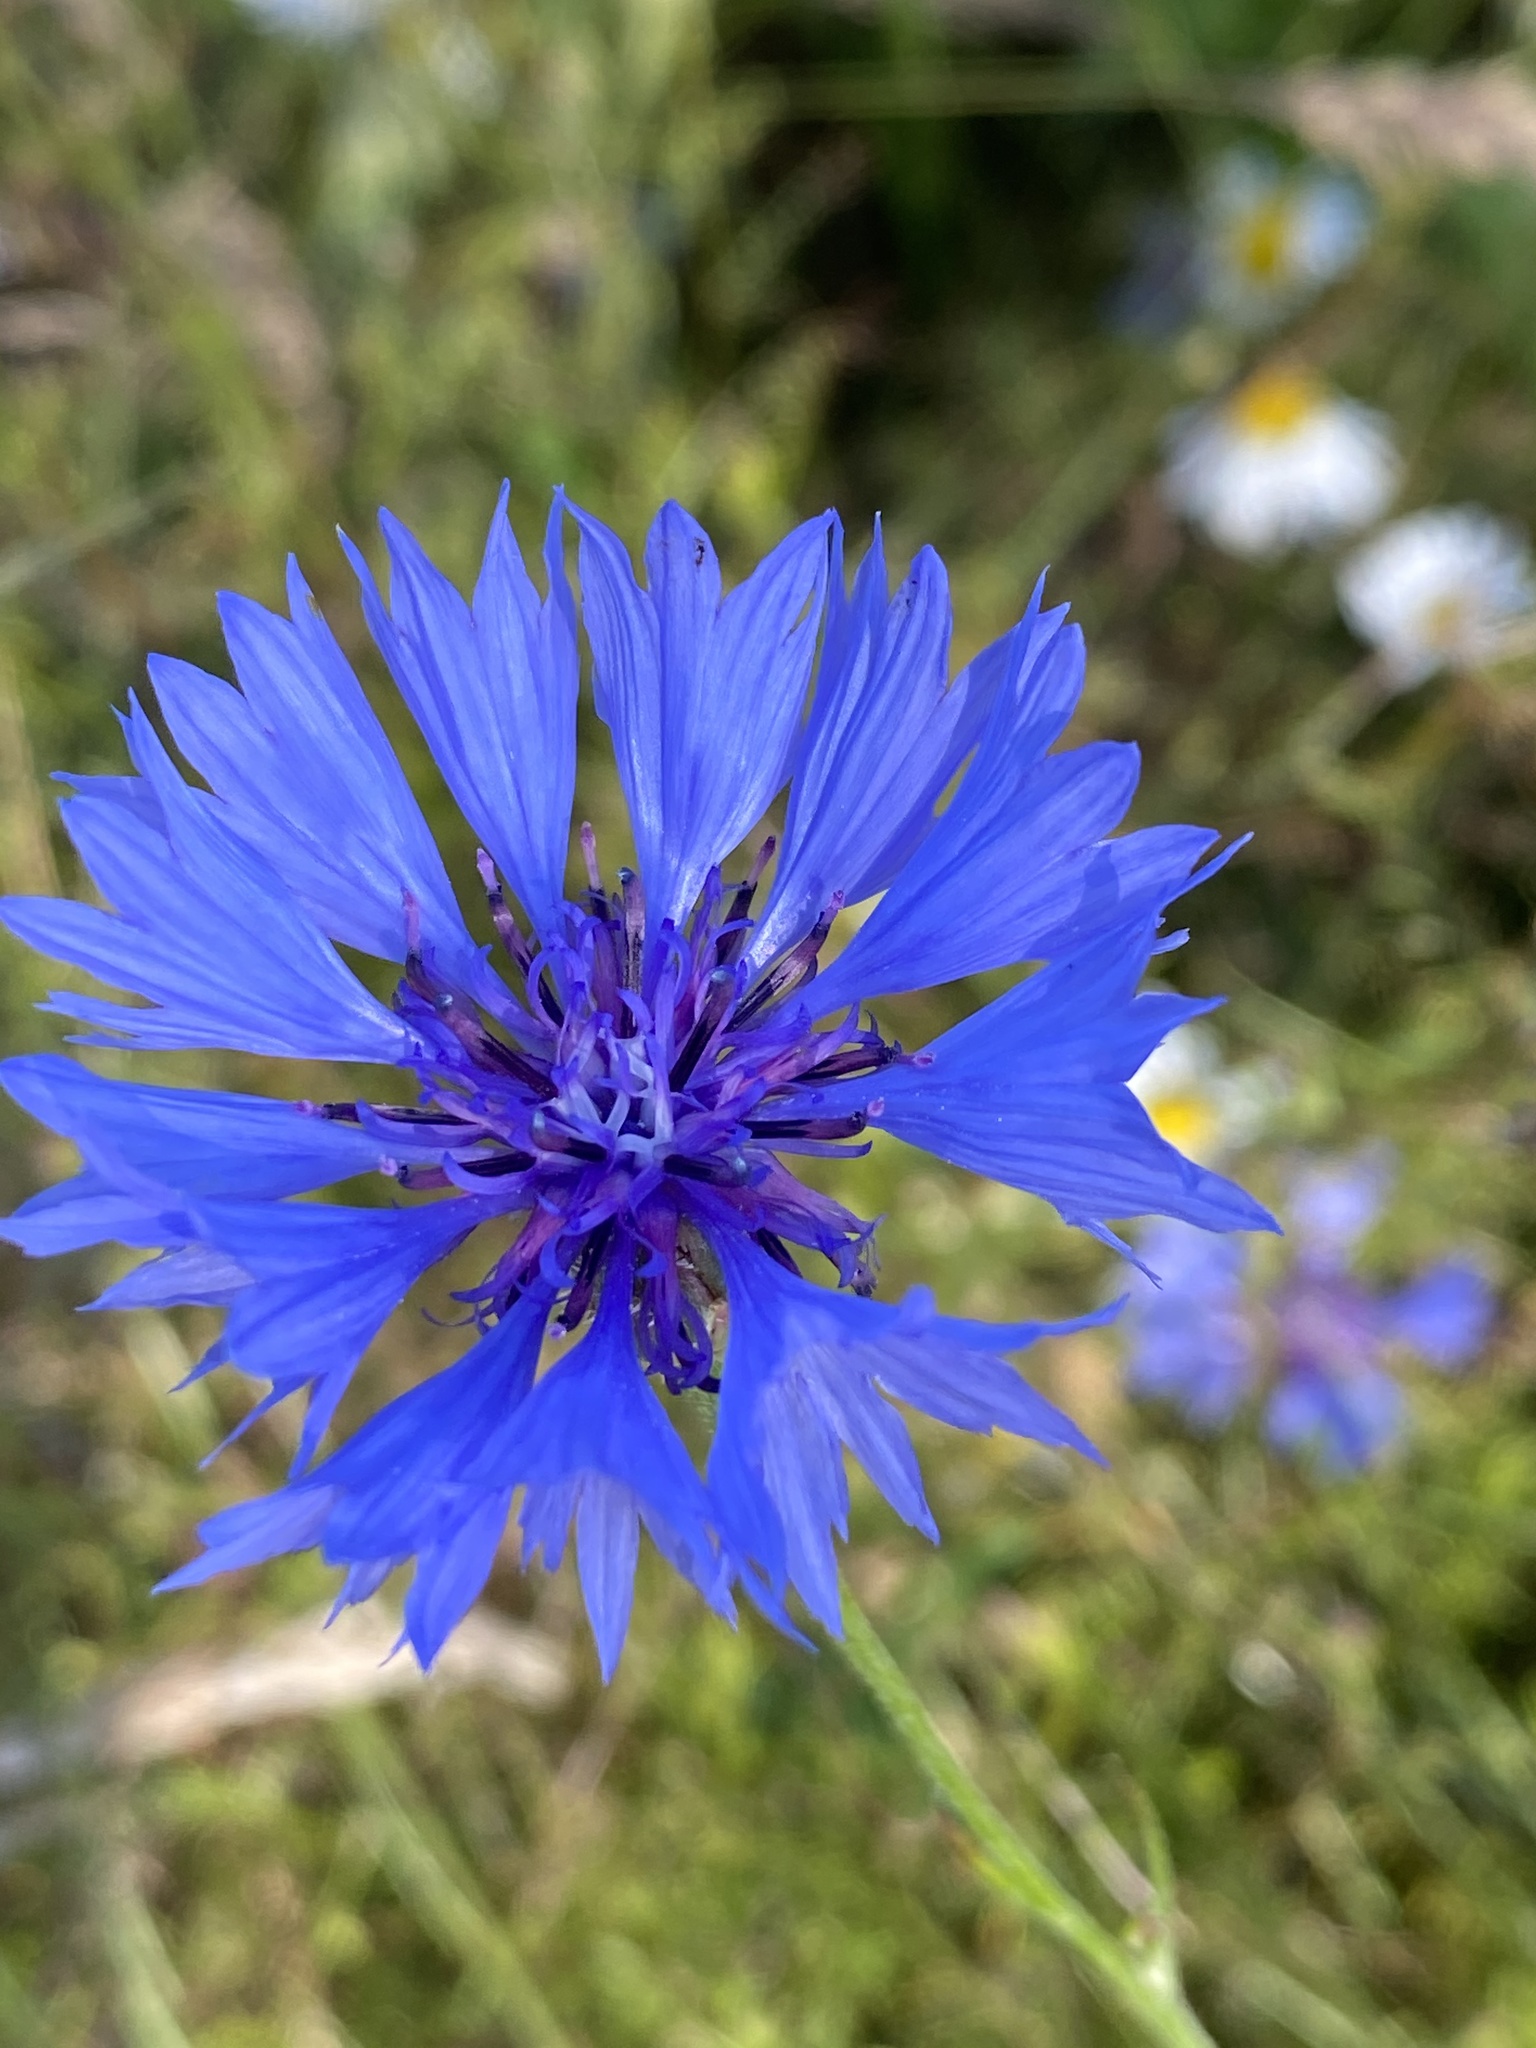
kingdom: Plantae
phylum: Tracheophyta
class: Magnoliopsida
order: Asterales
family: Asteraceae
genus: Centaurea
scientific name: Centaurea cyanus
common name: Cornflower
